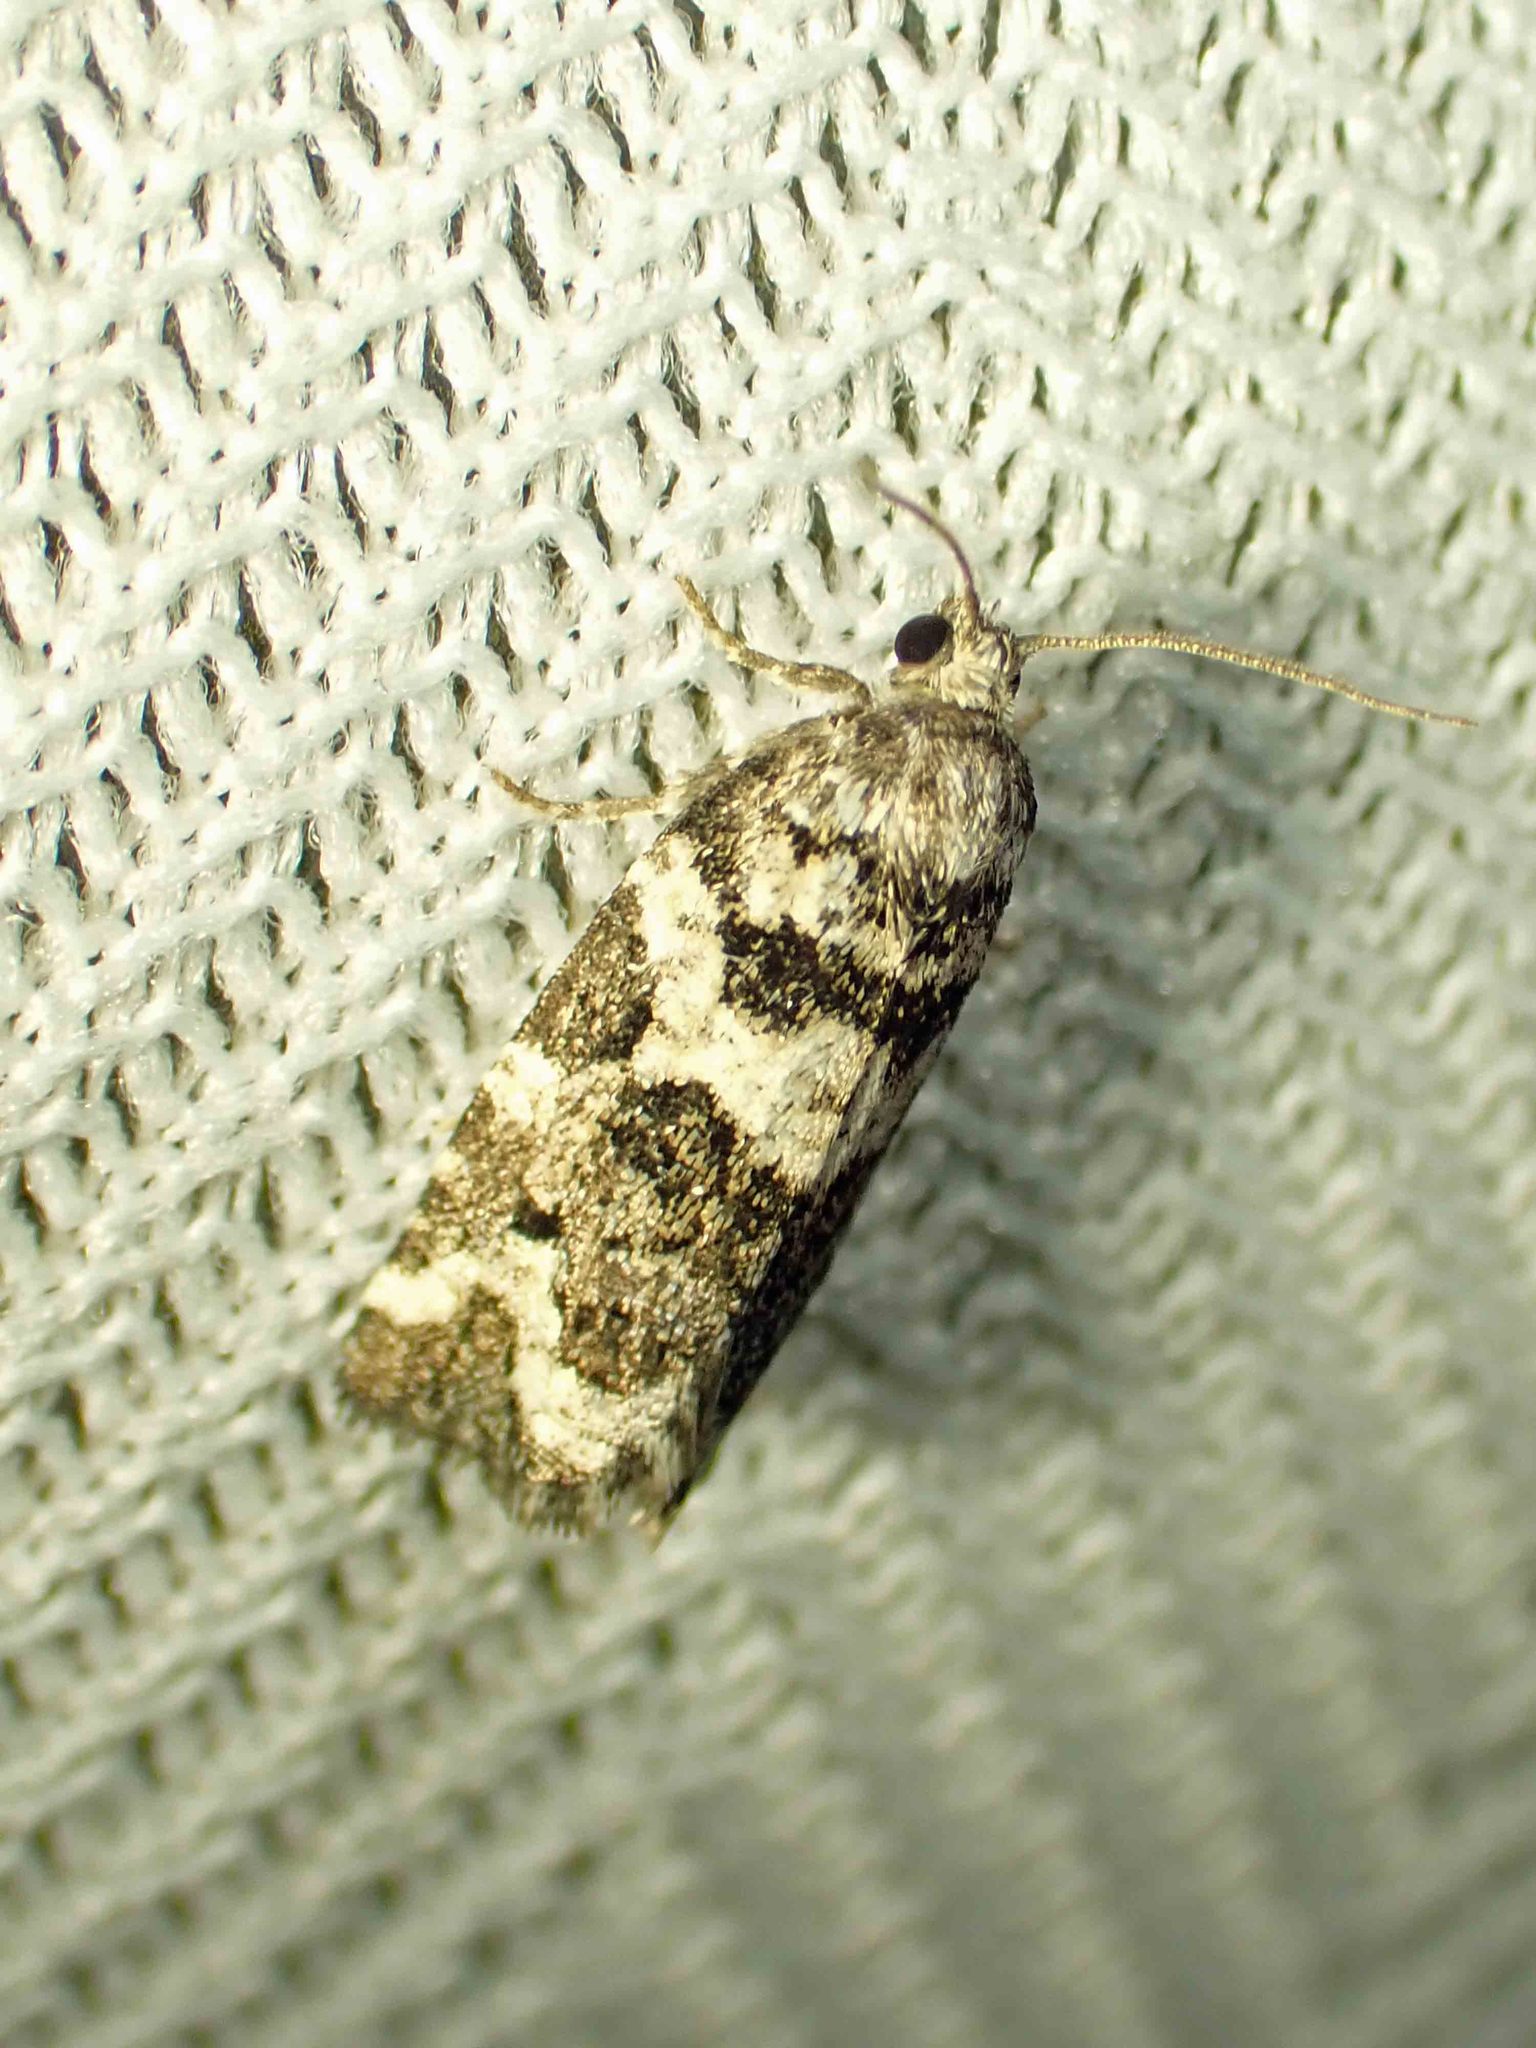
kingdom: Animalia
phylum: Arthropoda
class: Insecta
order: Lepidoptera
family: Tortricidae
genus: Archips
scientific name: Archips packardiana
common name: Spring spruce needle moth
